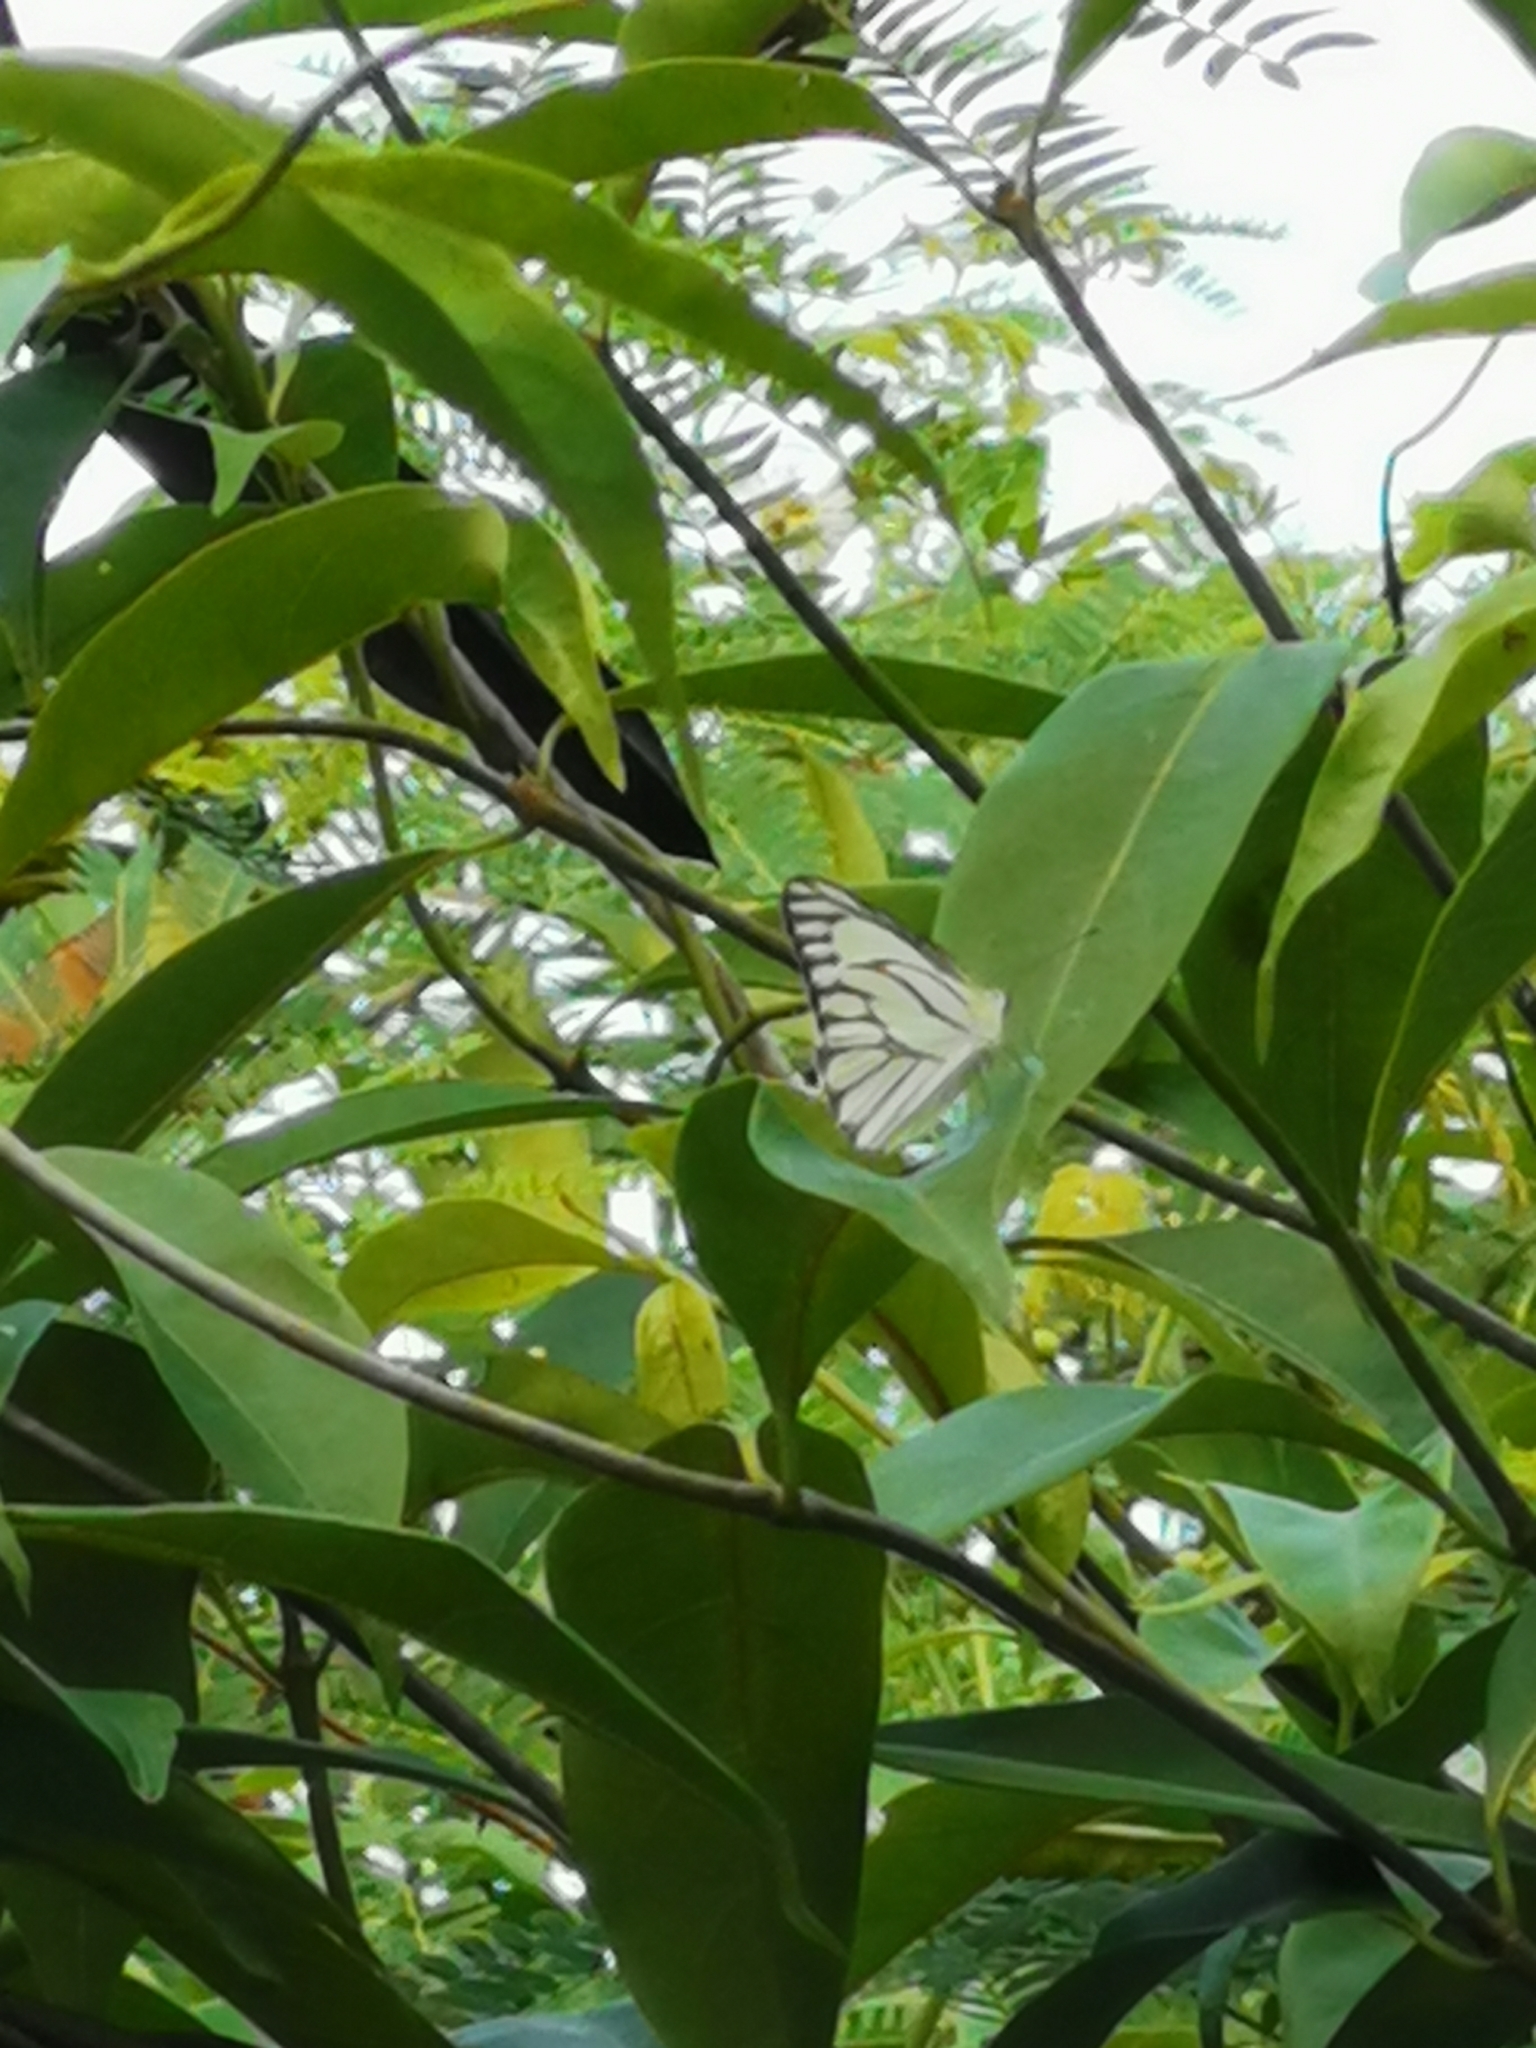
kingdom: Animalia
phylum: Arthropoda
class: Insecta
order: Lepidoptera
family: Pieridae
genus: Appias
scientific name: Appias libythea
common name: Striped albatross
